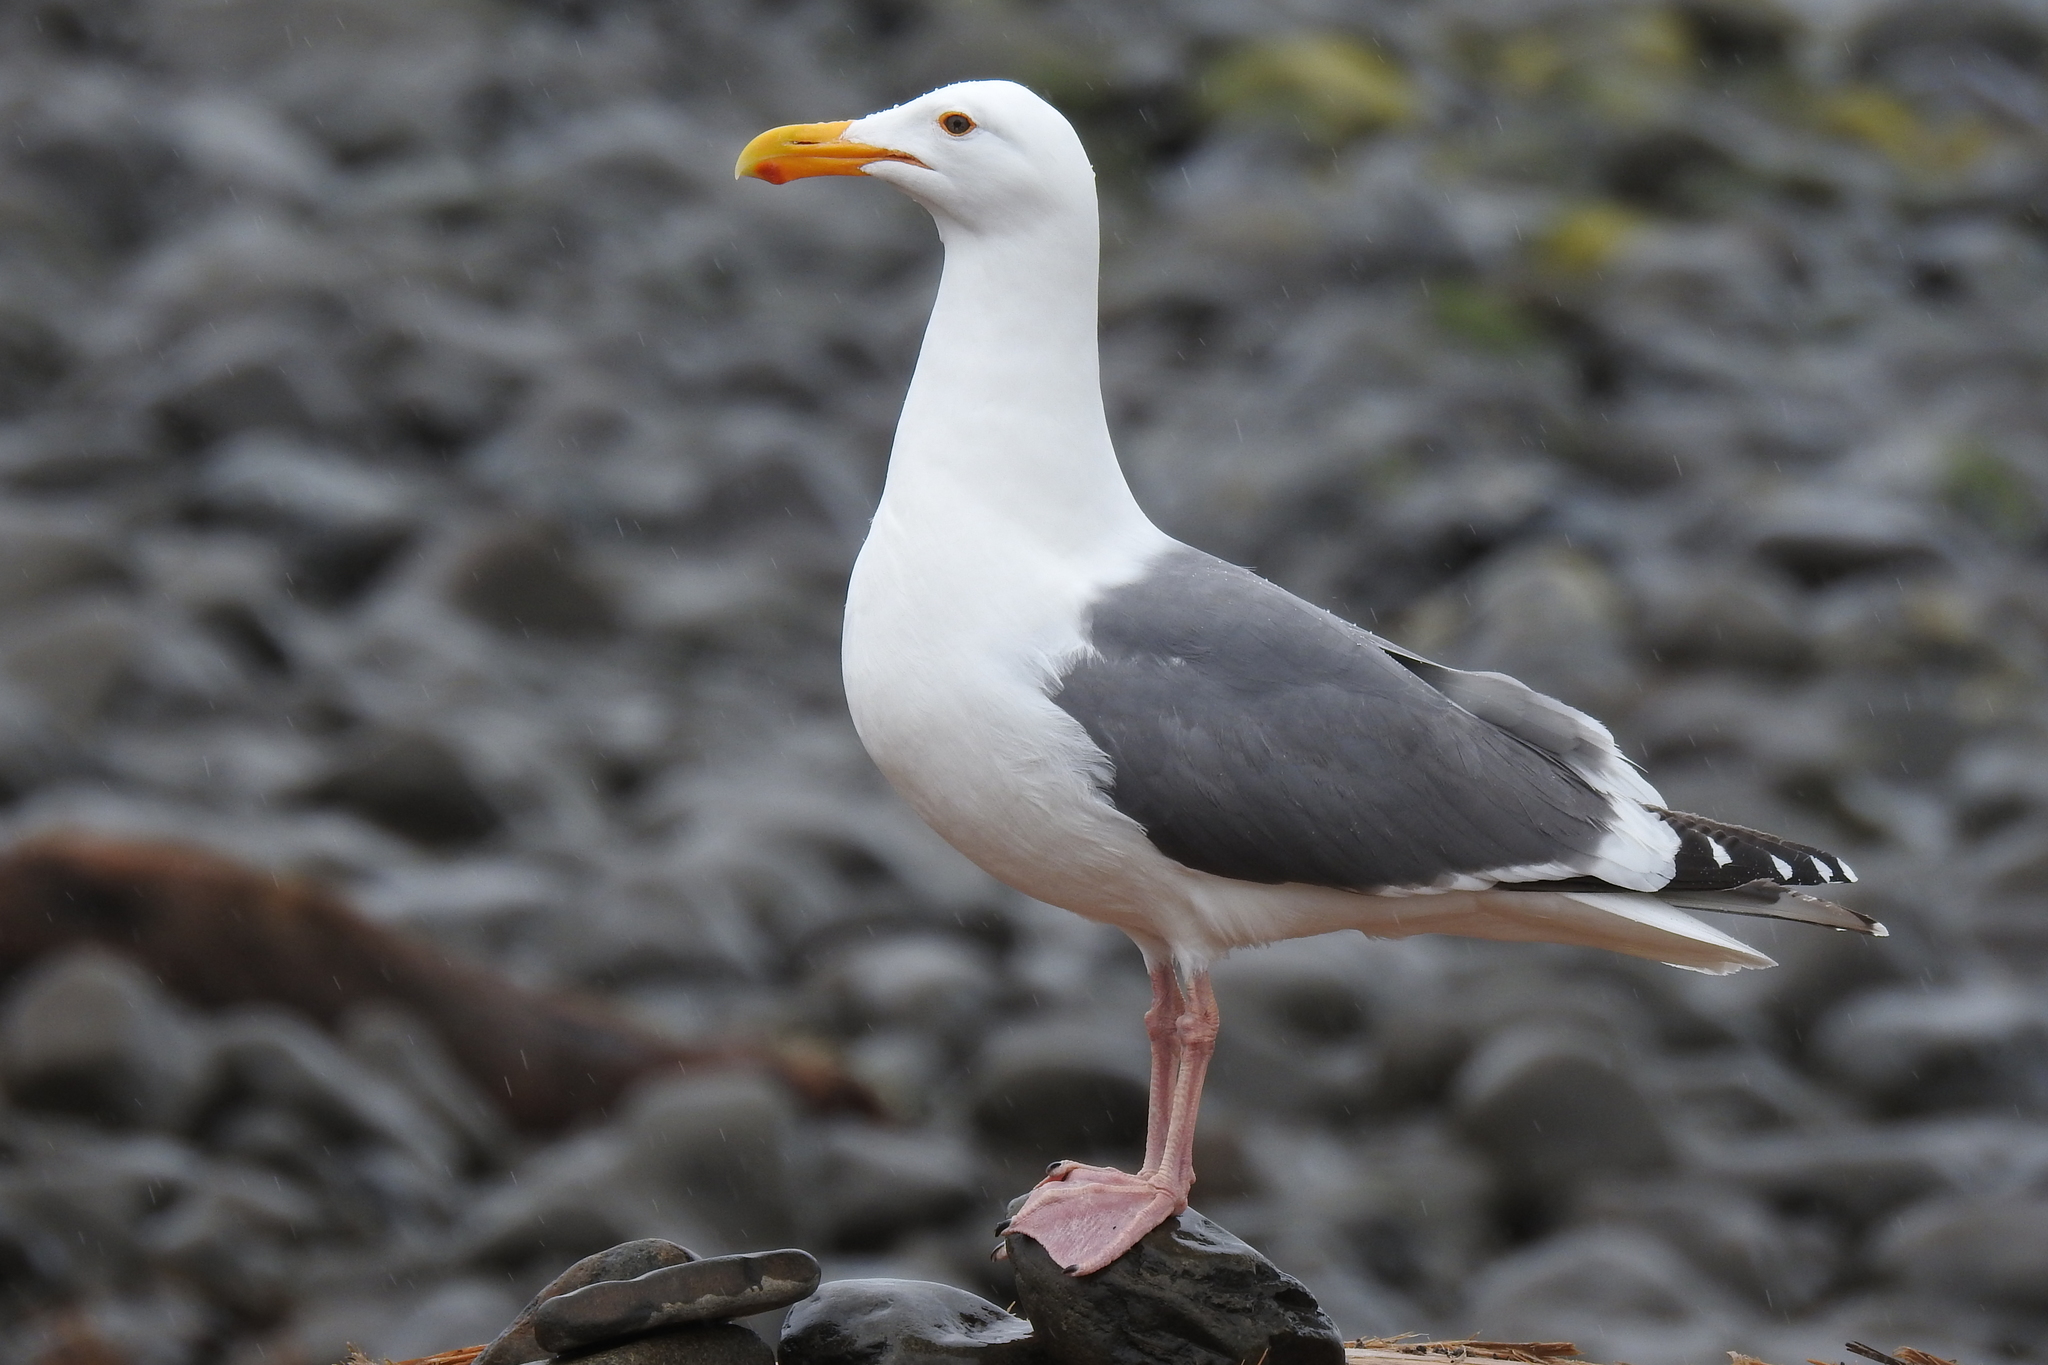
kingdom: Animalia
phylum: Chordata
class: Aves
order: Charadriiformes
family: Laridae
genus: Larus
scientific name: Larus occidentalis
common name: Western gull
